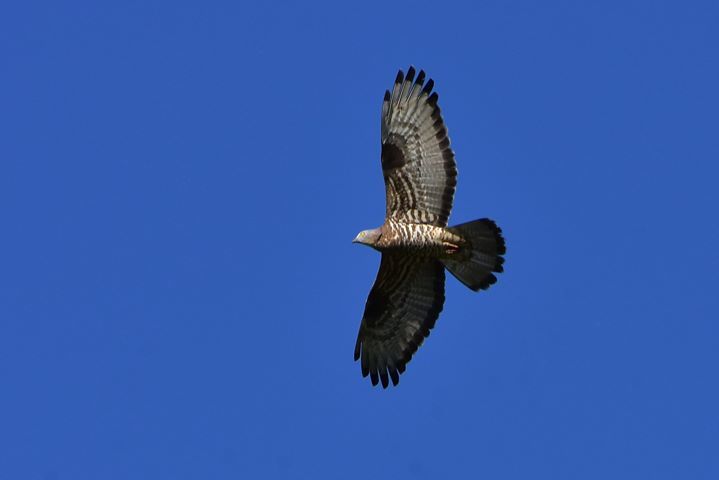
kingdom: Animalia
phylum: Chordata
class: Aves
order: Accipitriformes
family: Accipitridae
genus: Pernis
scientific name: Pernis apivorus
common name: European honey buzzard
